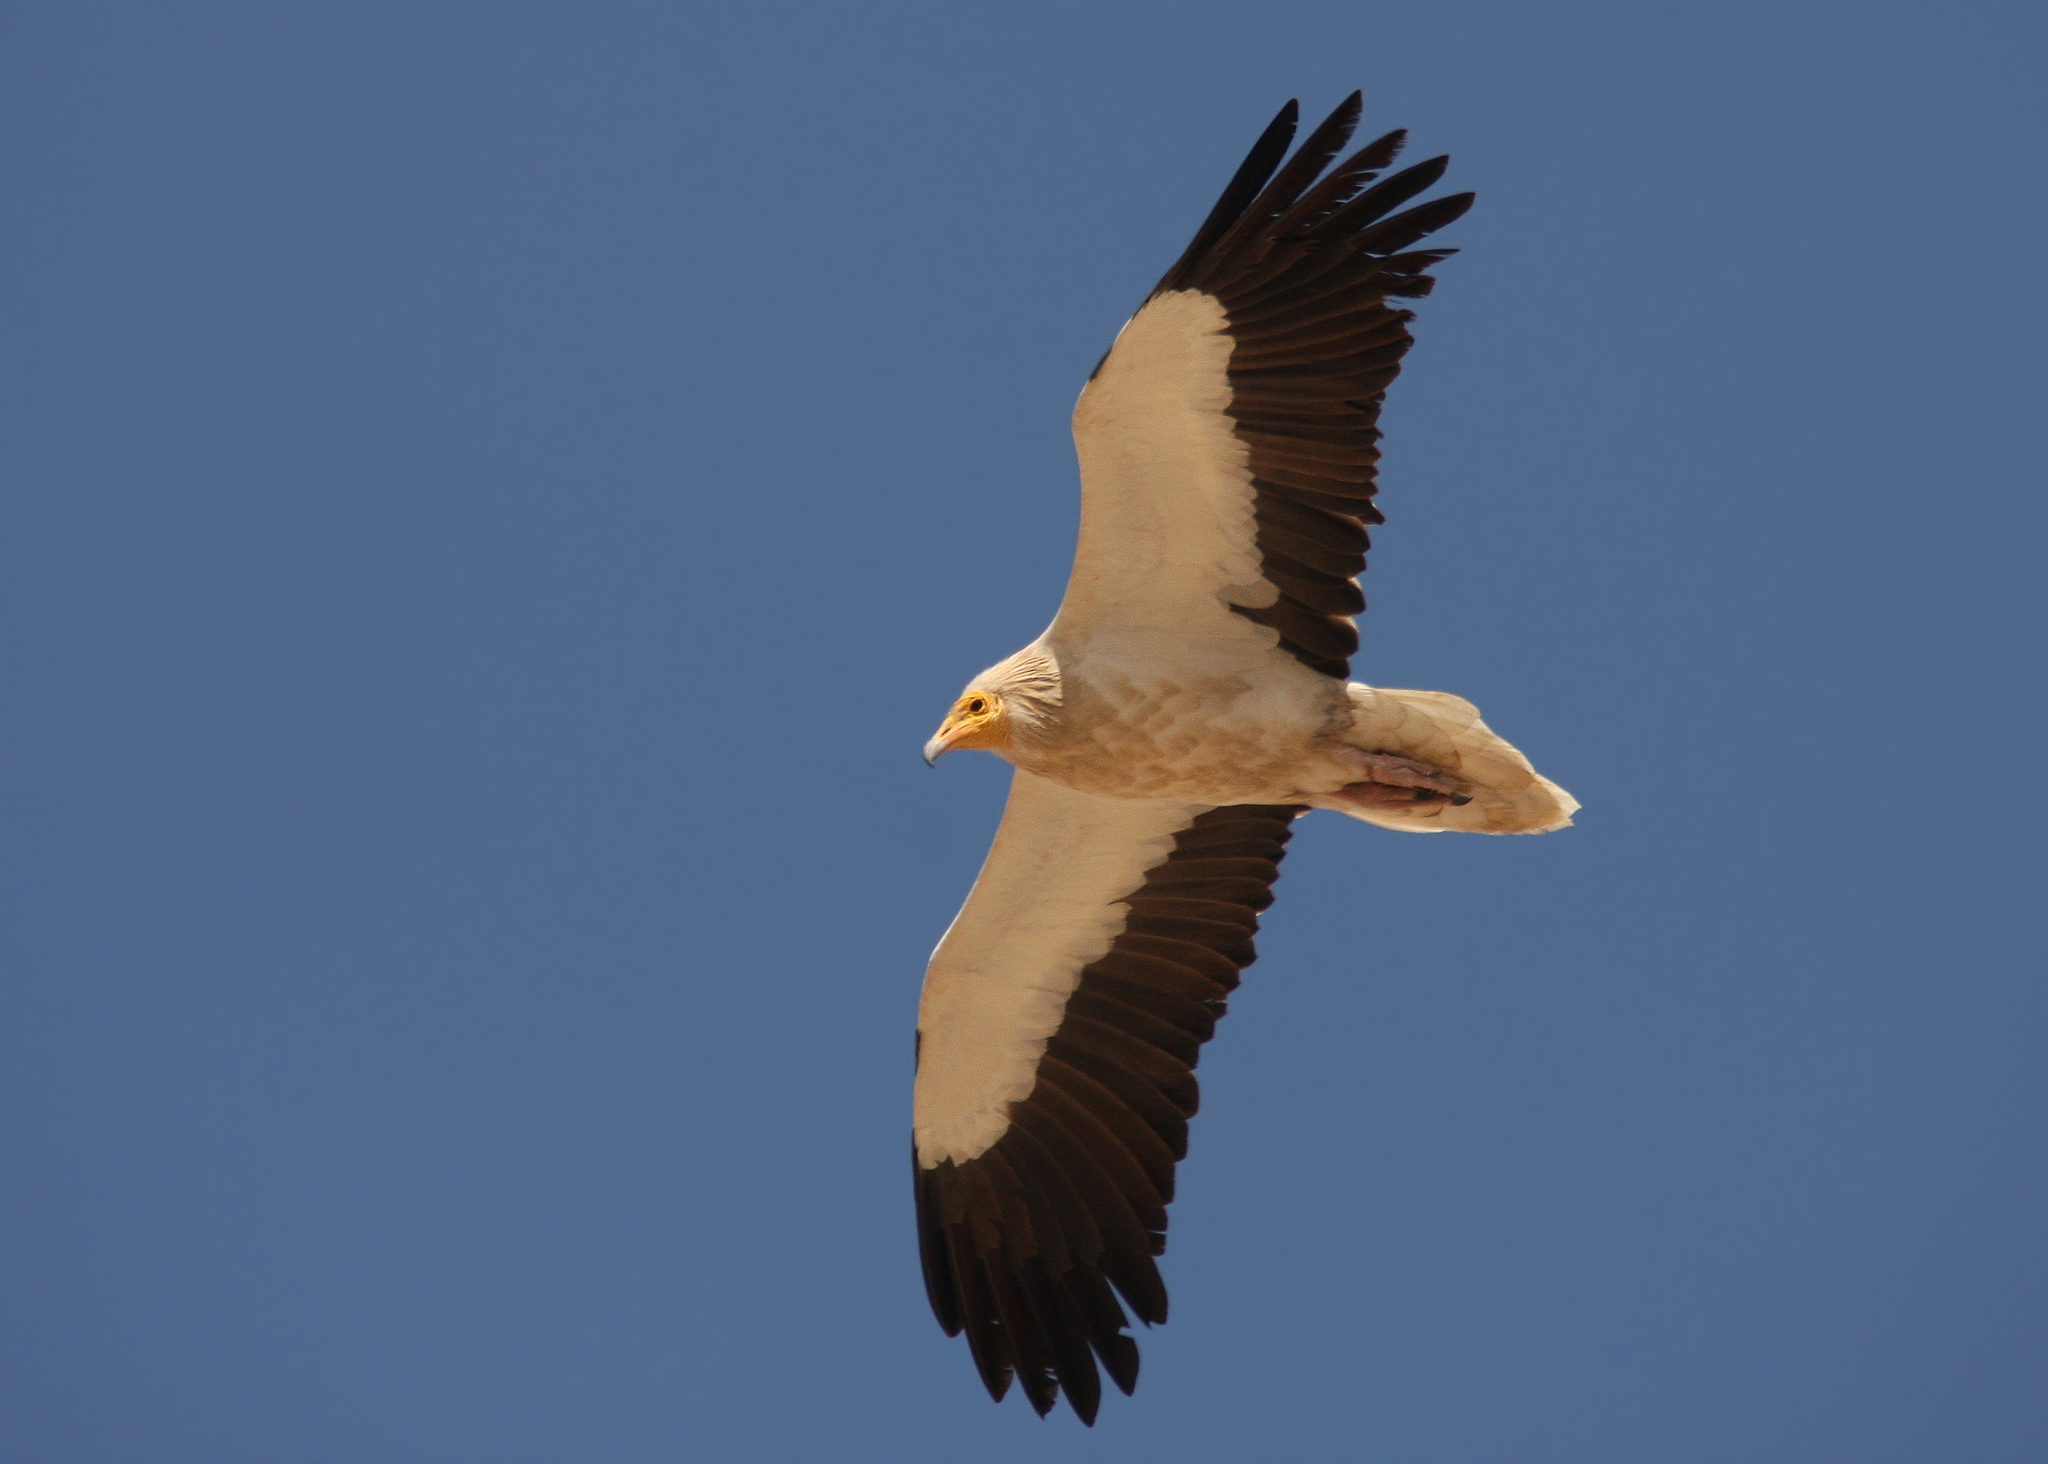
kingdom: Animalia
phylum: Chordata
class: Aves
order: Accipitriformes
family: Accipitridae
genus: Neophron
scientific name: Neophron percnopterus
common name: Egyptian vulture
